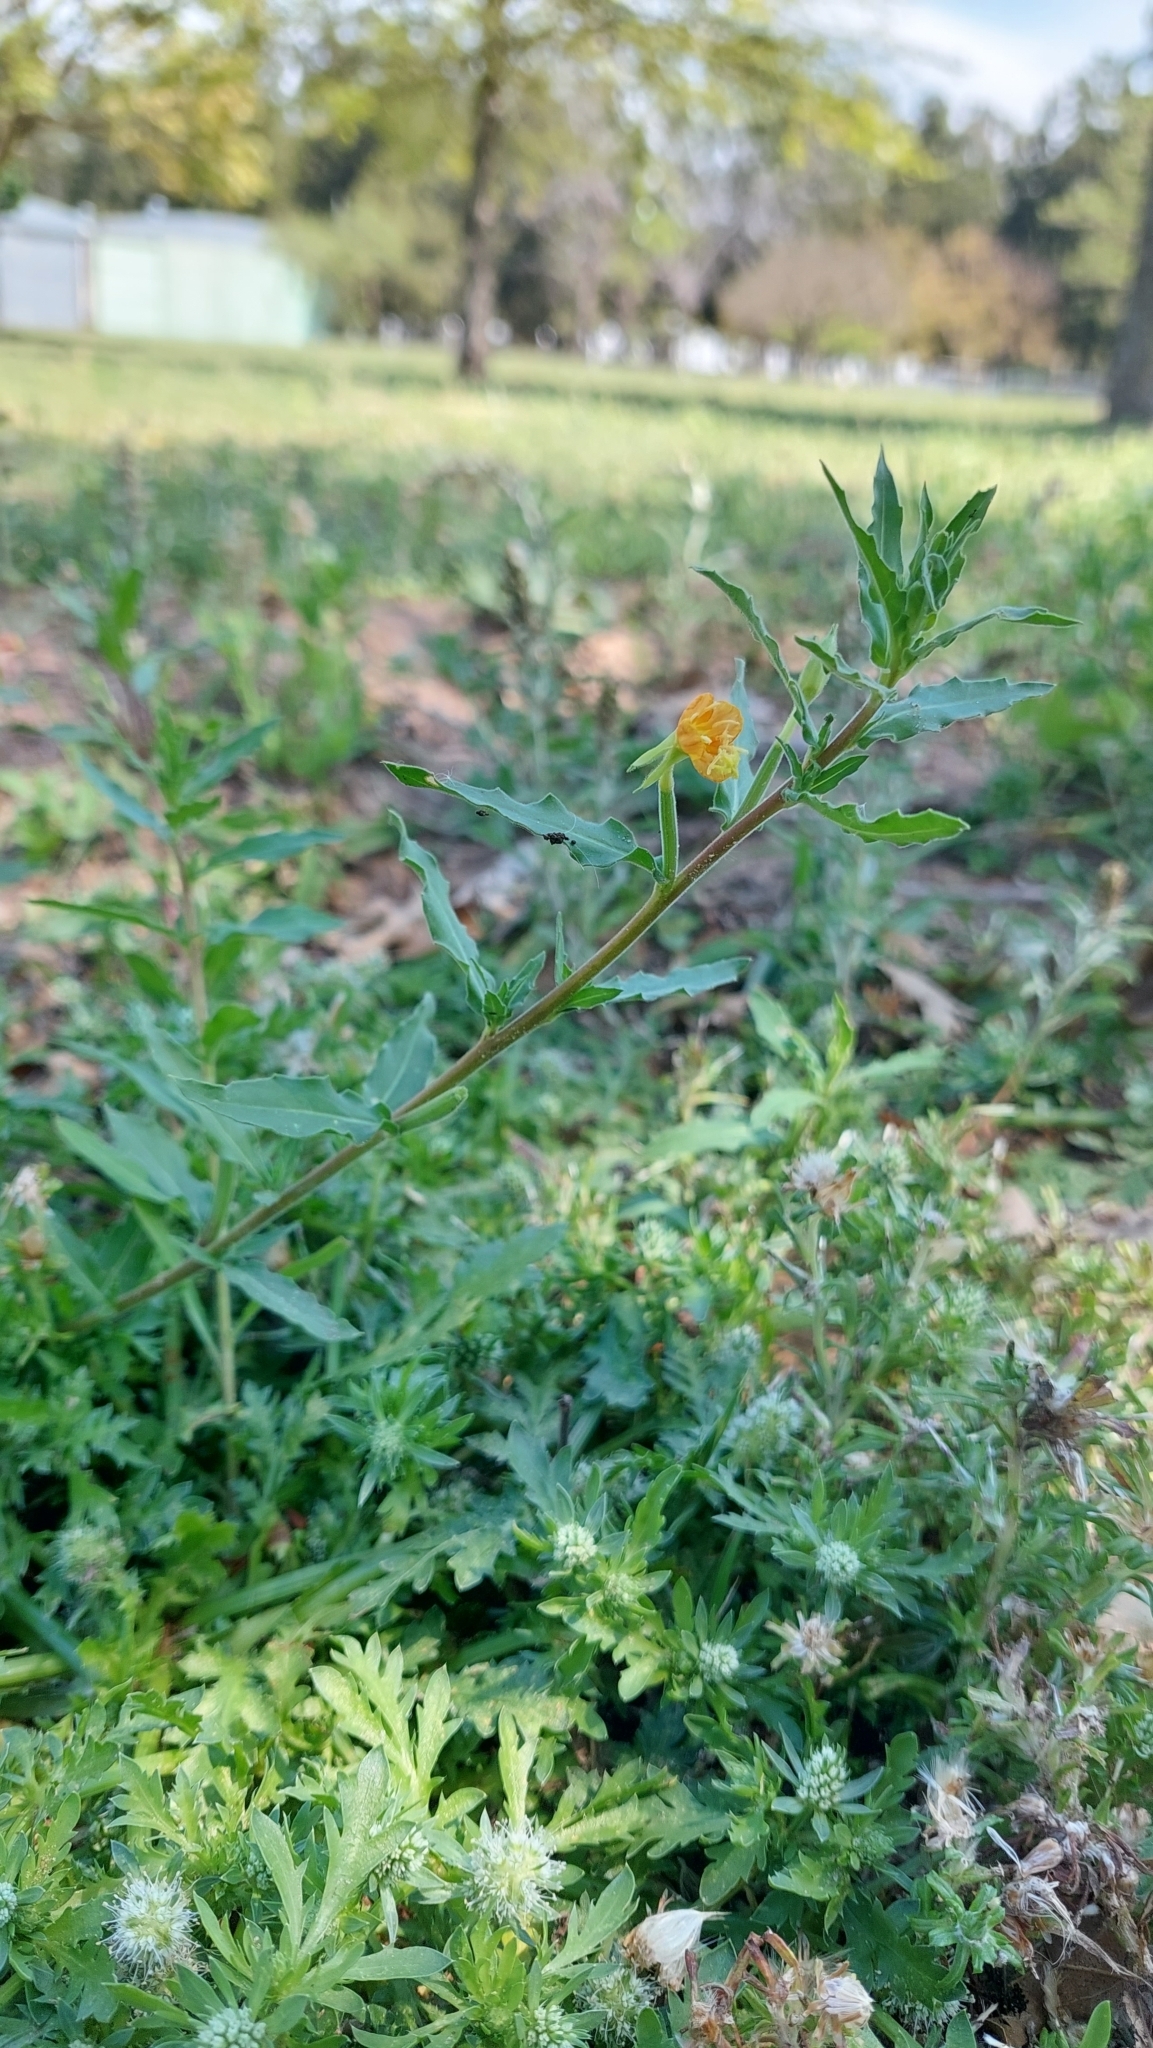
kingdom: Plantae
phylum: Tracheophyta
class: Magnoliopsida
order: Myrtales
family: Onagraceae
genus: Oenothera
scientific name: Oenothera indecora
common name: Small-flower evening-primrose
